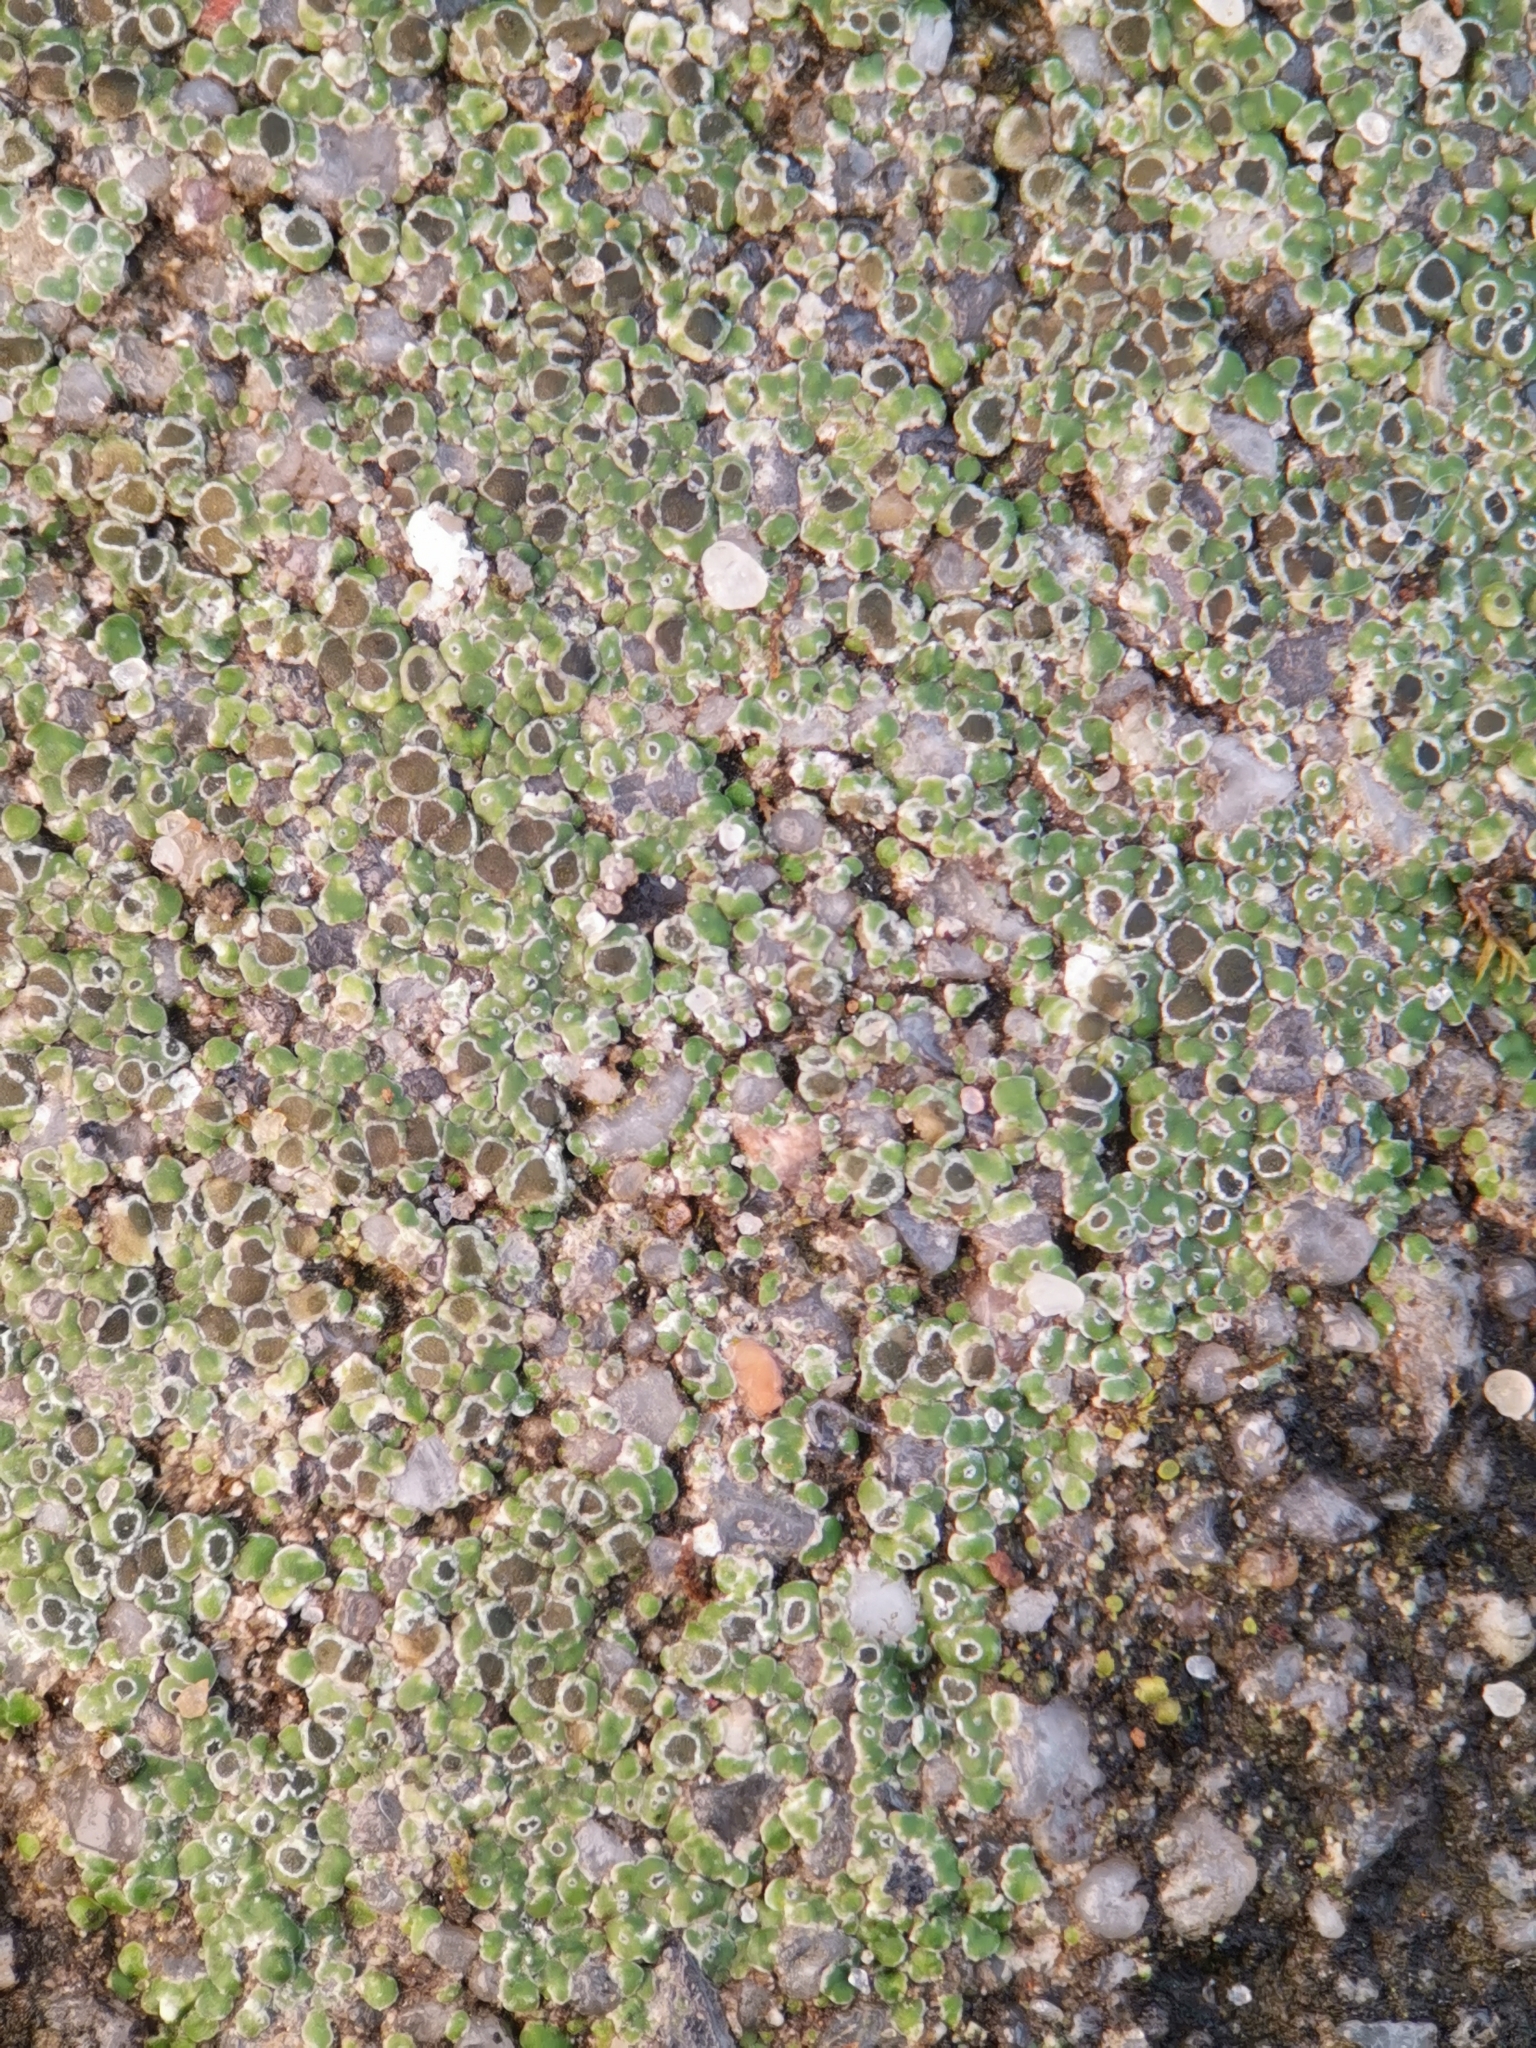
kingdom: Fungi
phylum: Ascomycota
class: Lecanoromycetes
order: Pertusariales
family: Megasporaceae
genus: Circinaria
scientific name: Circinaria contorta
